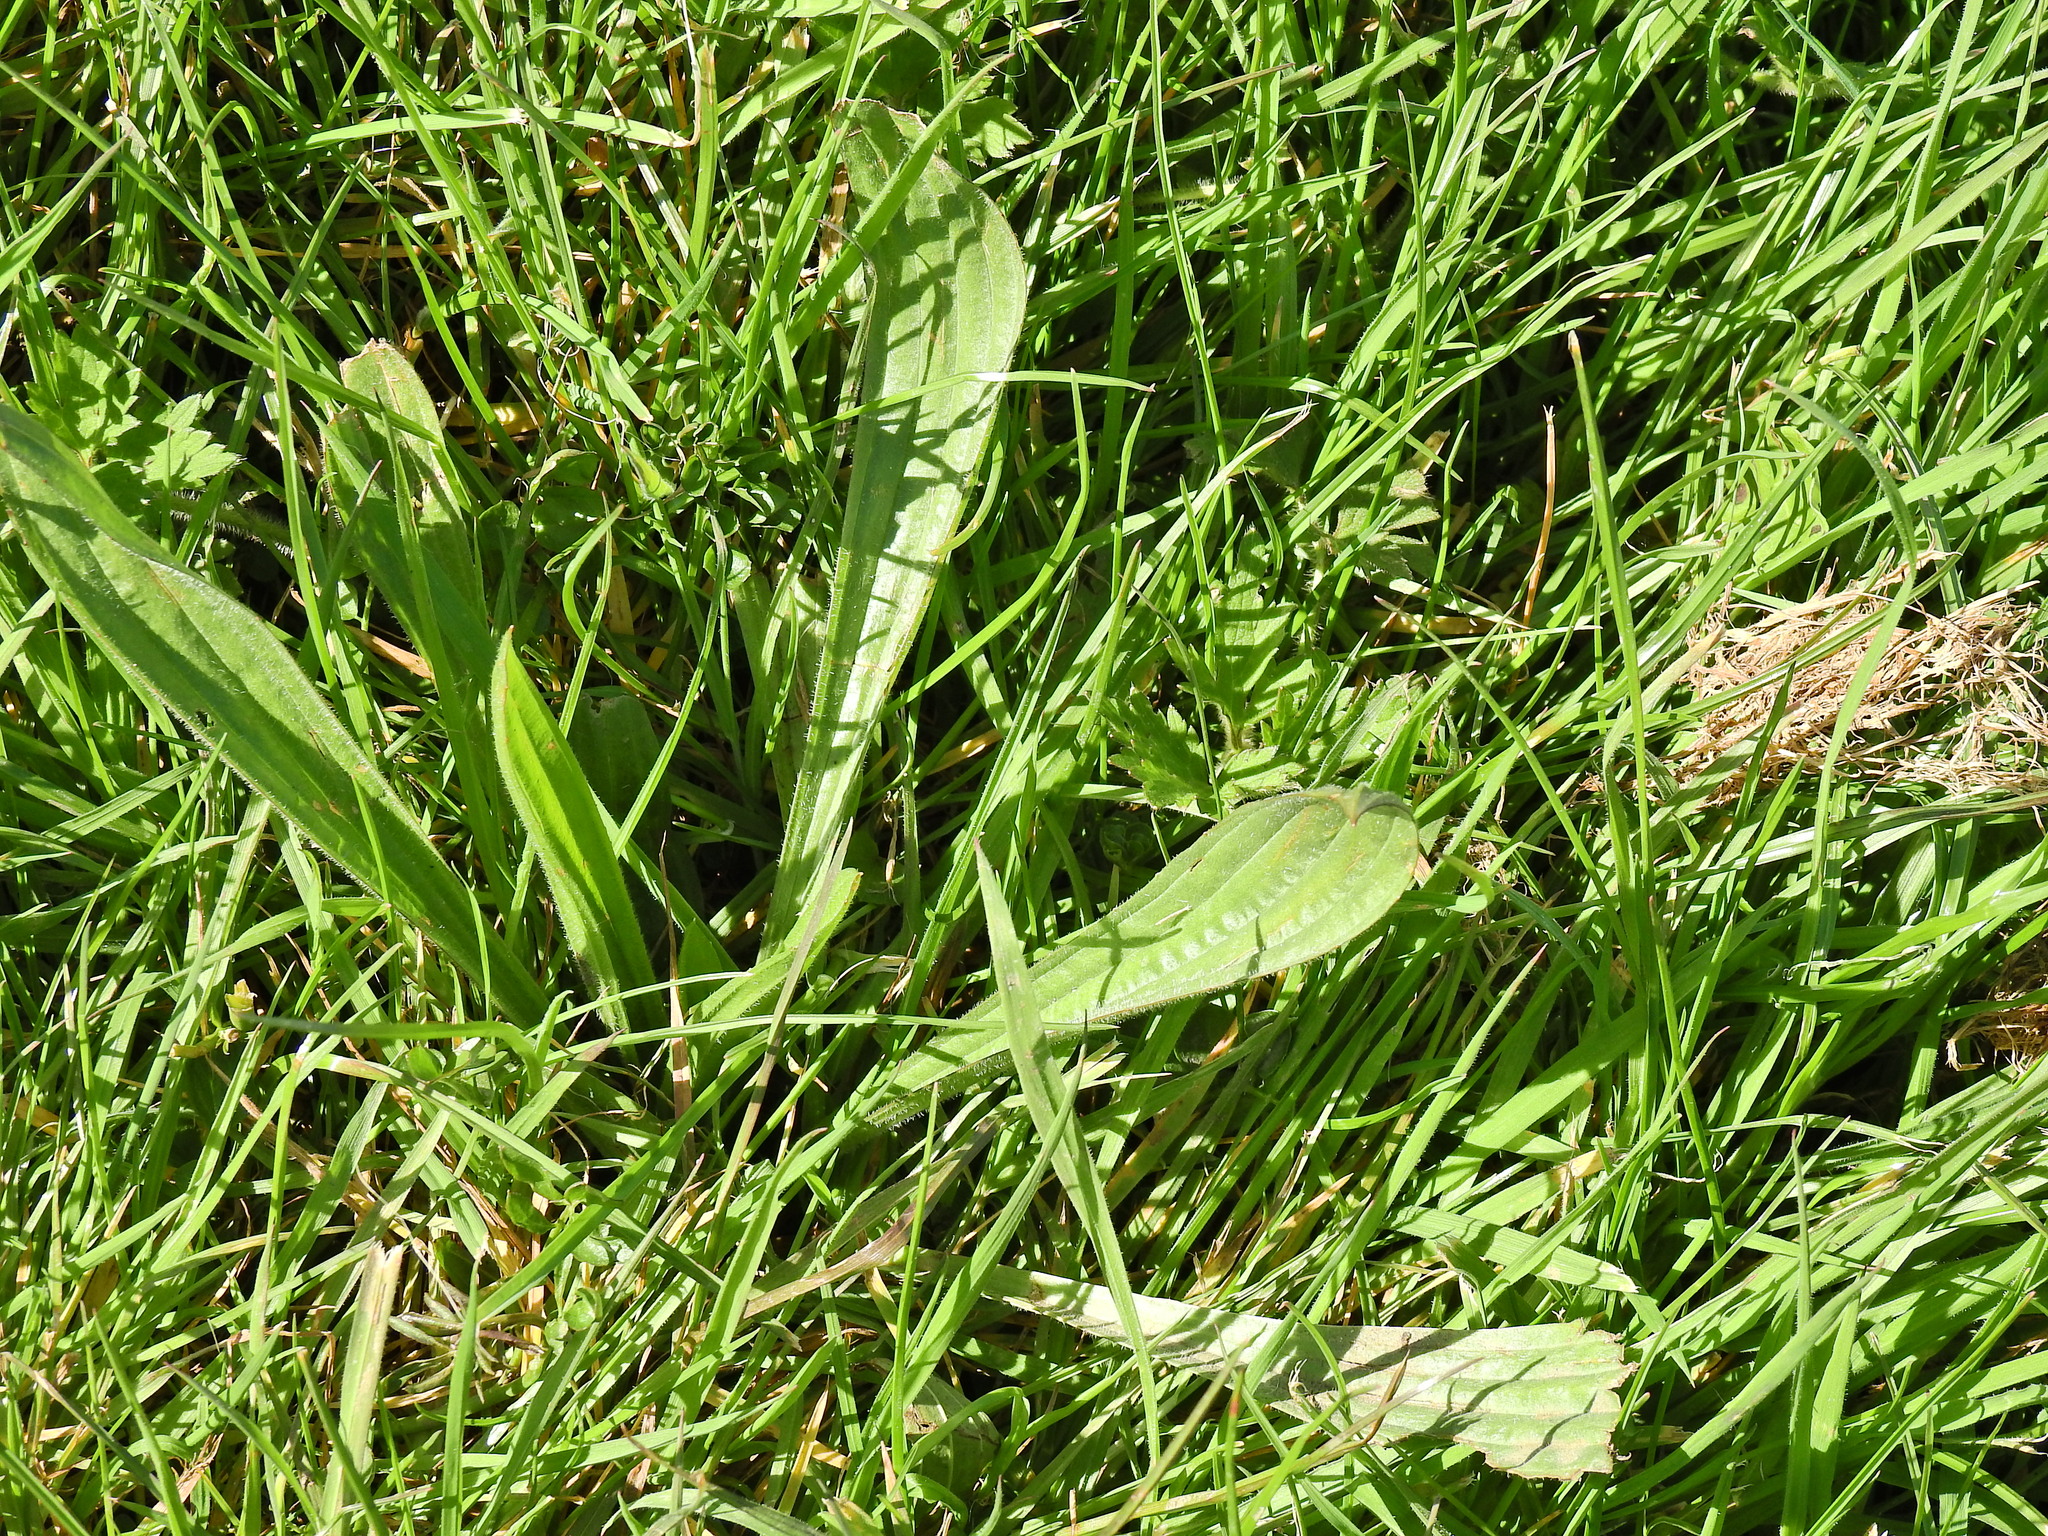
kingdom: Plantae
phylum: Tracheophyta
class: Magnoliopsida
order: Lamiales
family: Plantaginaceae
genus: Plantago
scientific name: Plantago lanceolata
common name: Ribwort plantain
